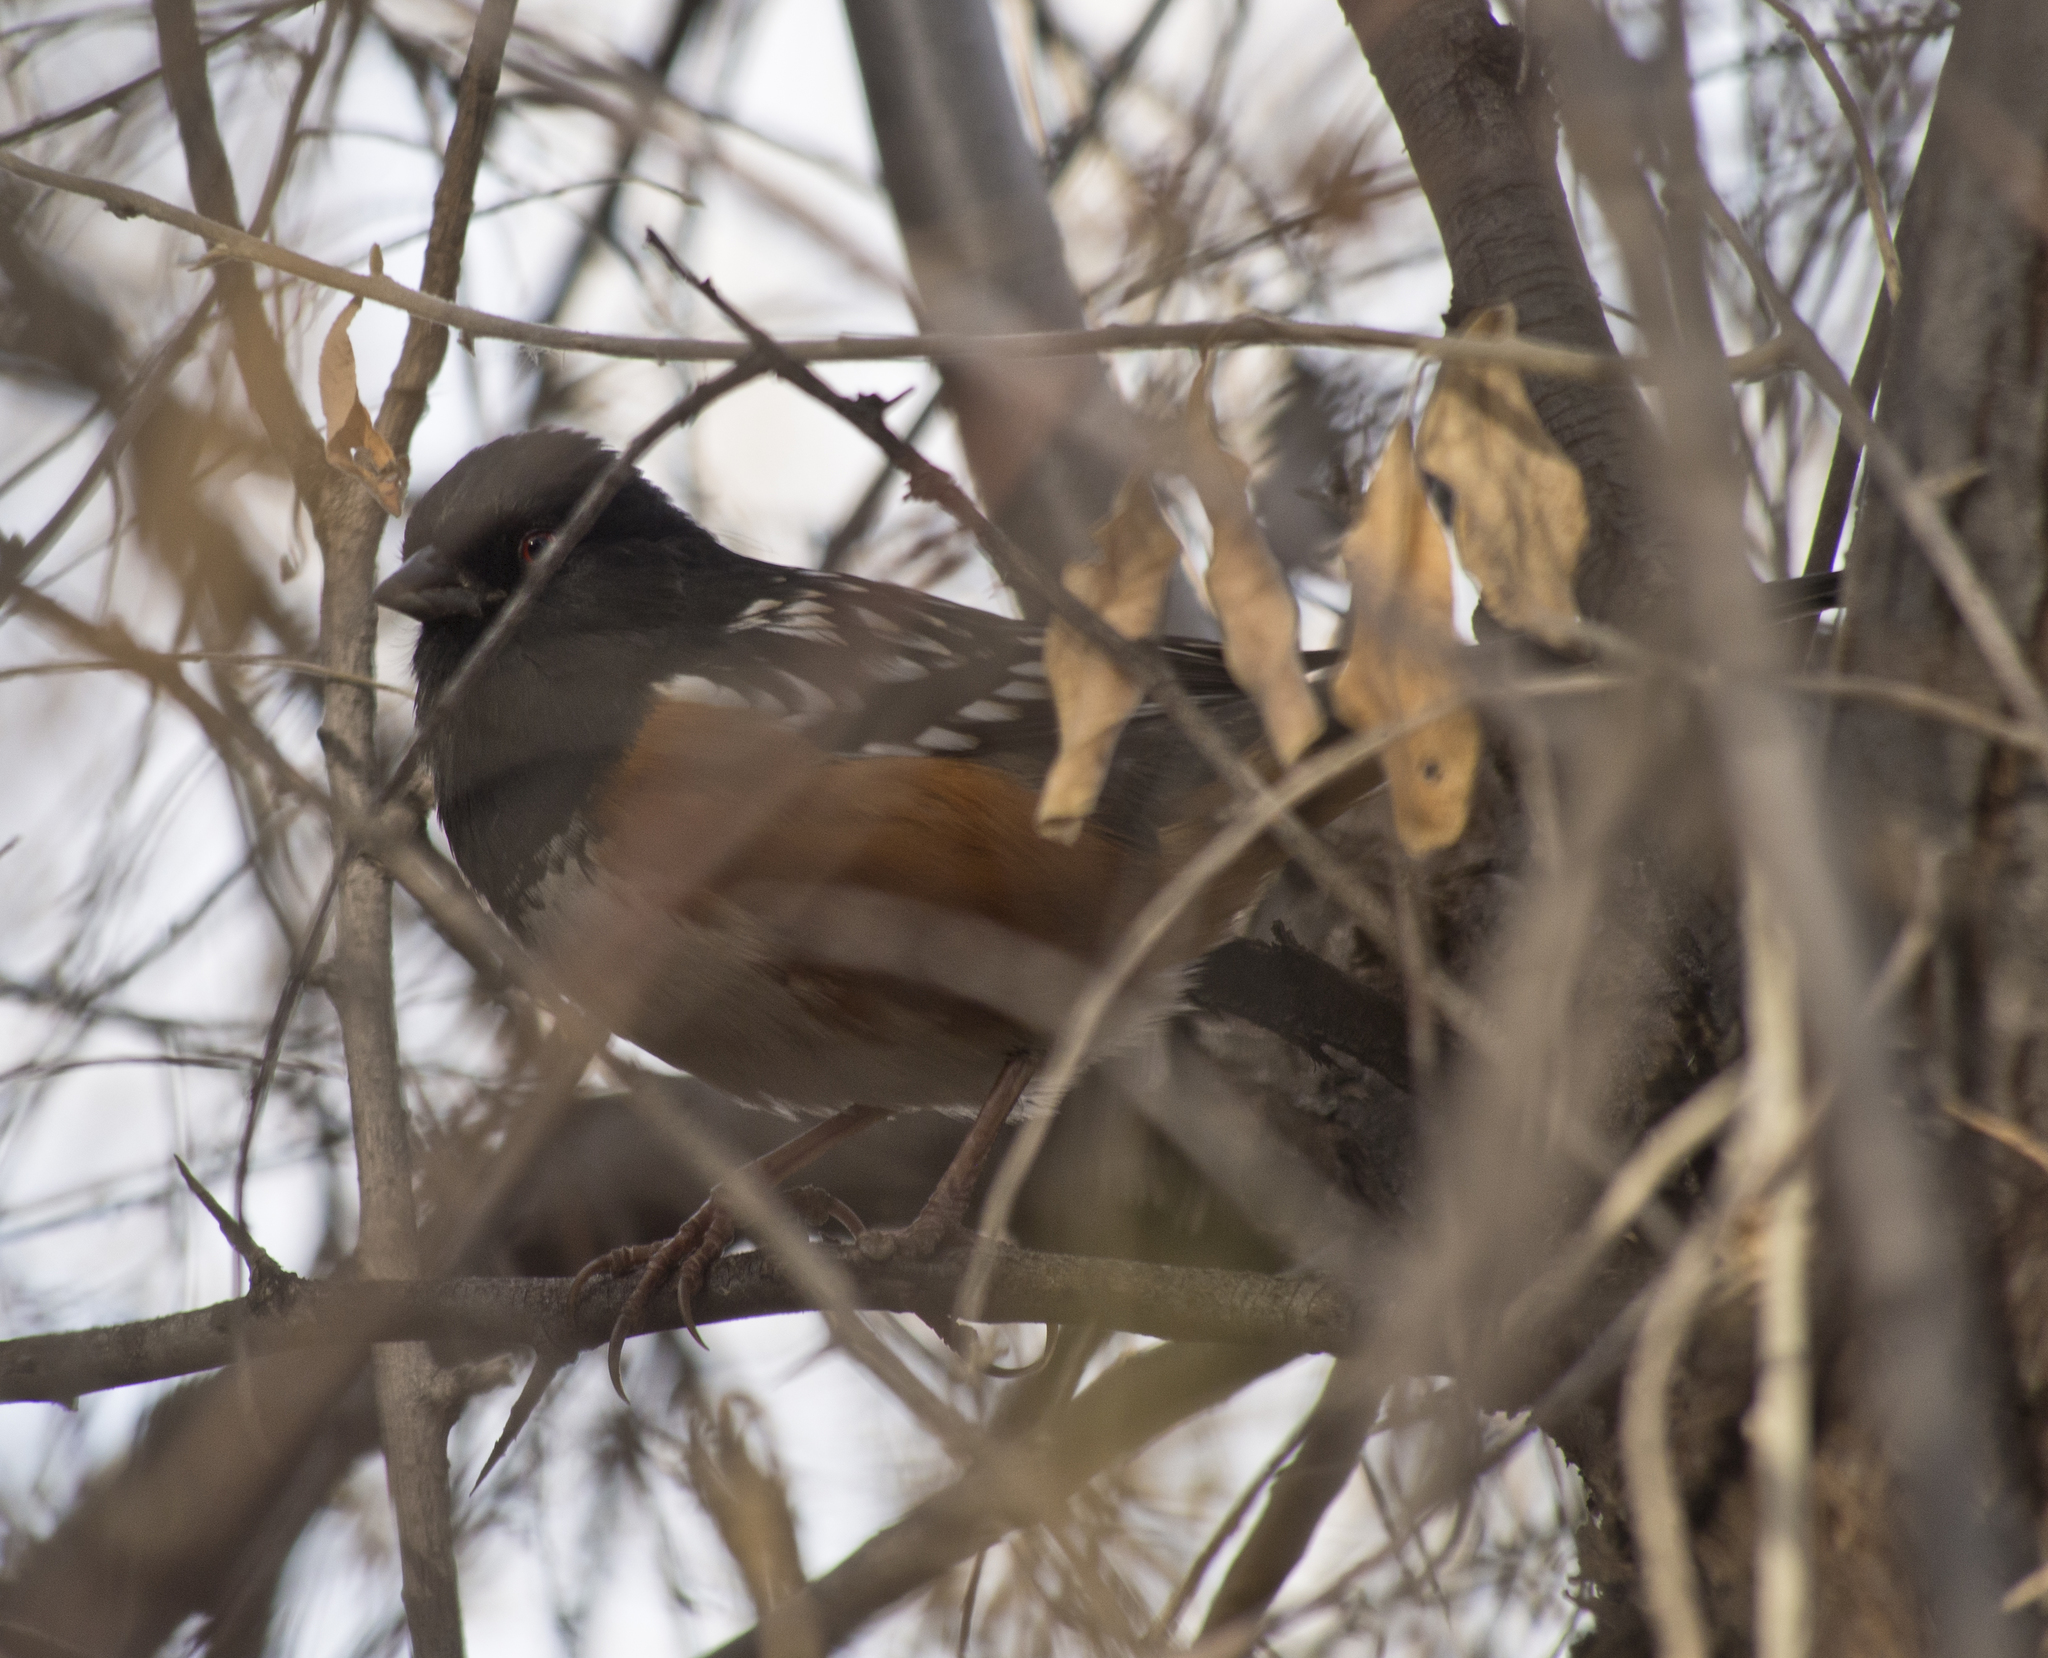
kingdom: Animalia
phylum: Chordata
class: Aves
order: Passeriformes
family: Passerellidae
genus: Pipilo
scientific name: Pipilo maculatus
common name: Spotted towhee
